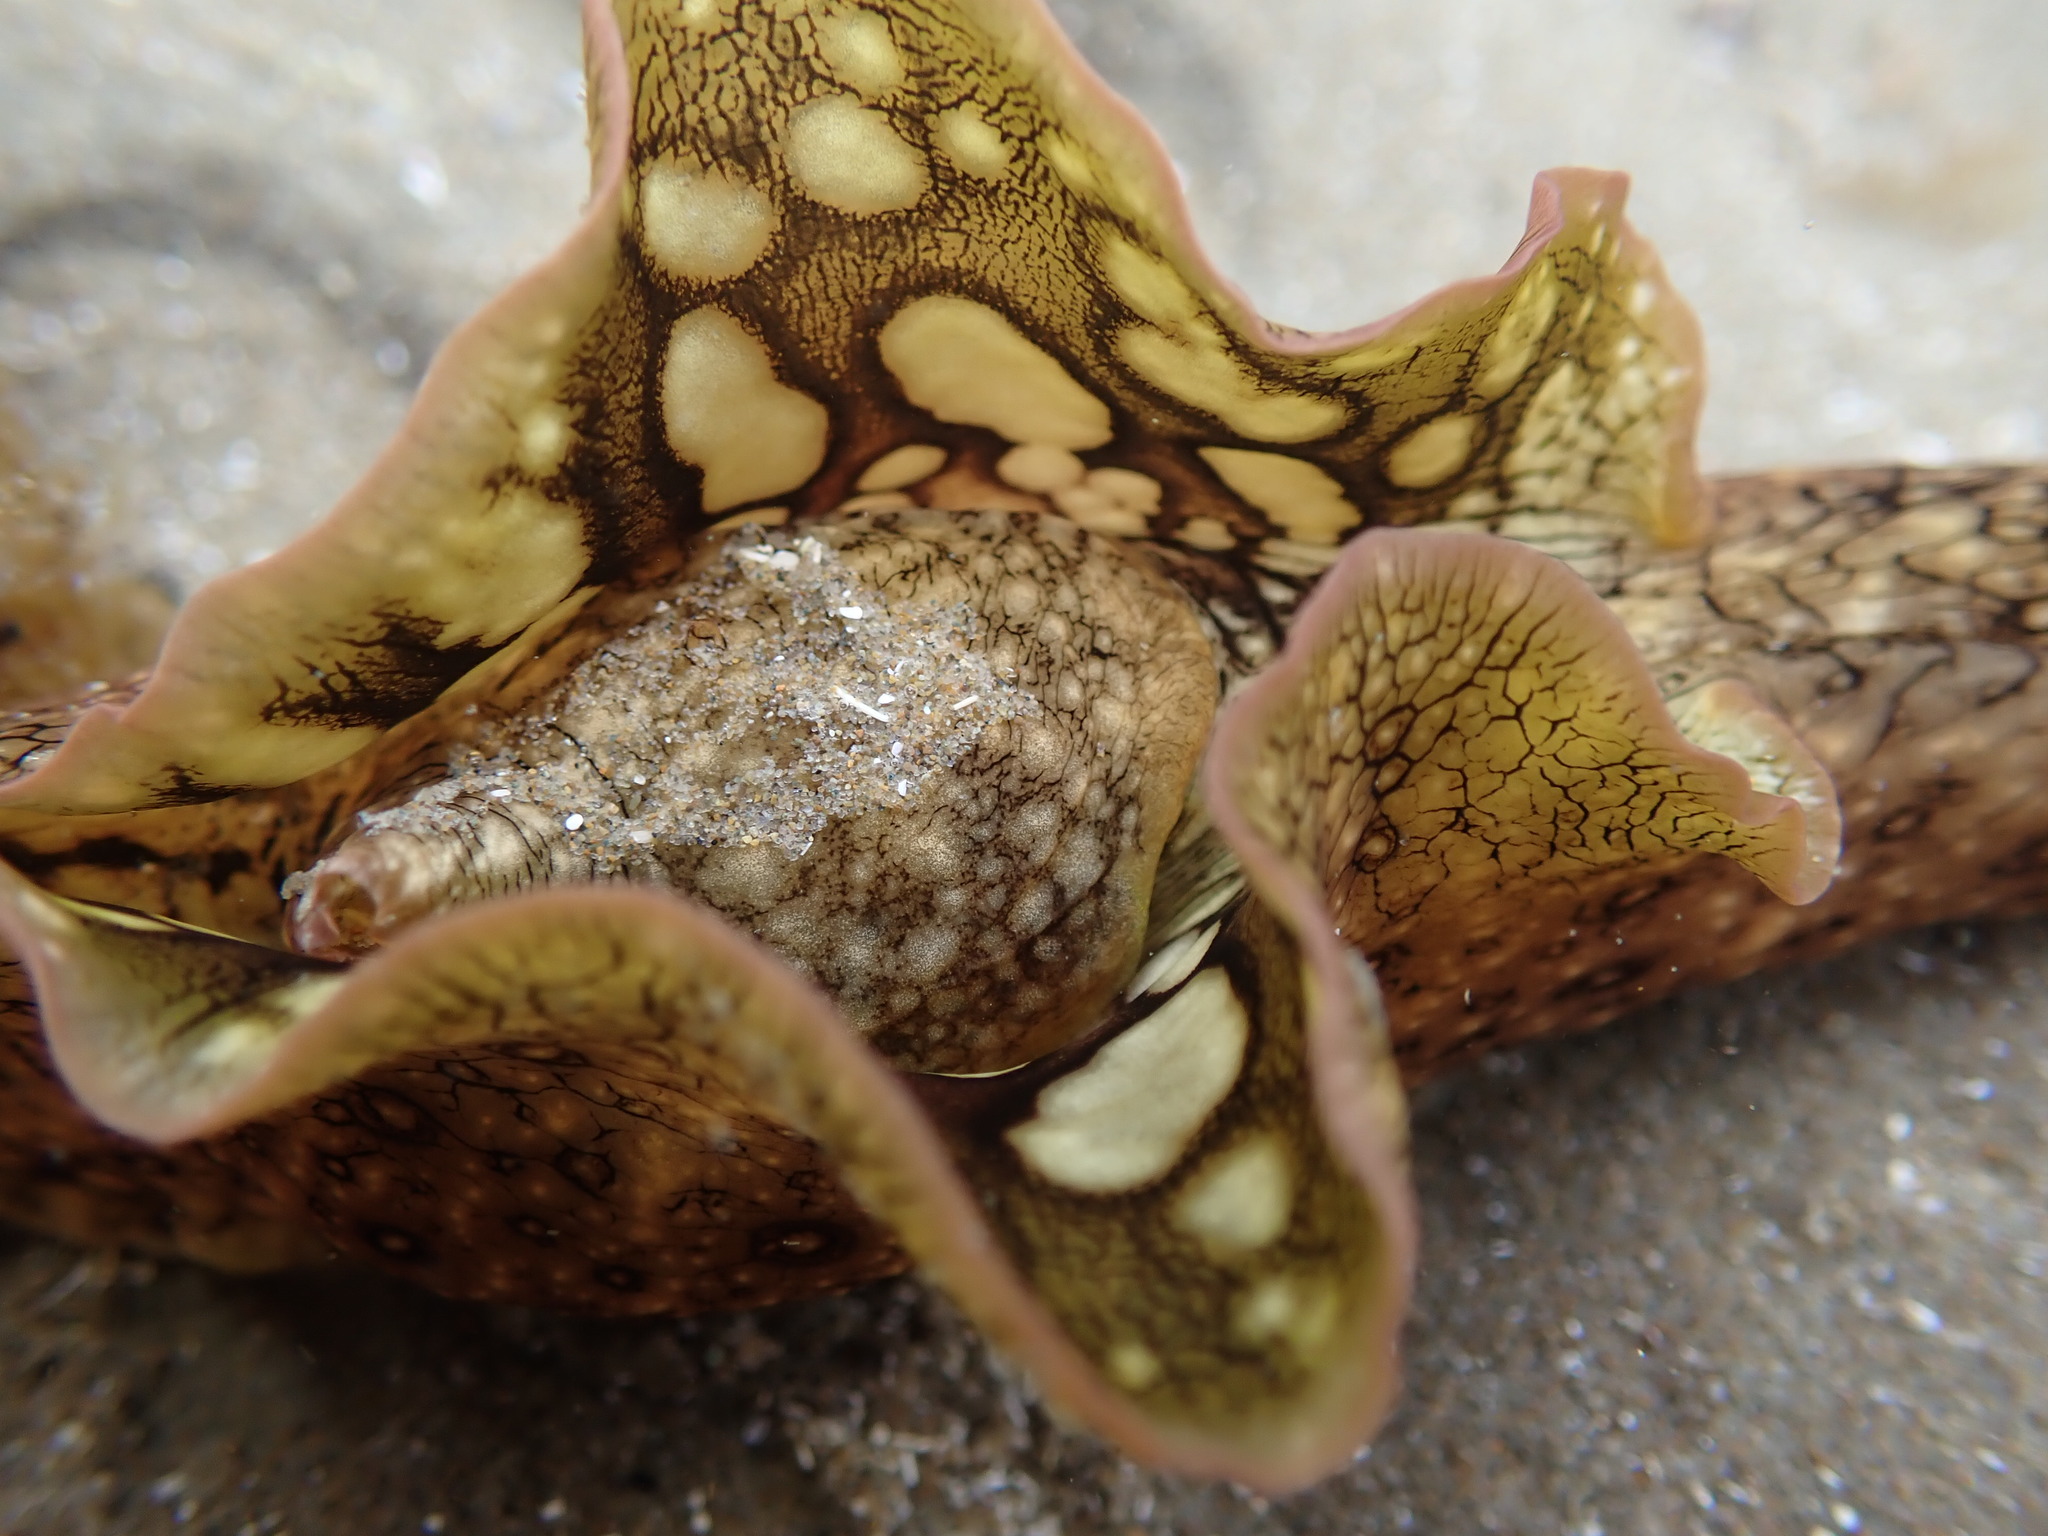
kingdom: Animalia
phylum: Mollusca
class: Gastropoda
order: Aplysiida
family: Aplysiidae
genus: Aplysia
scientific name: Aplysia argus
